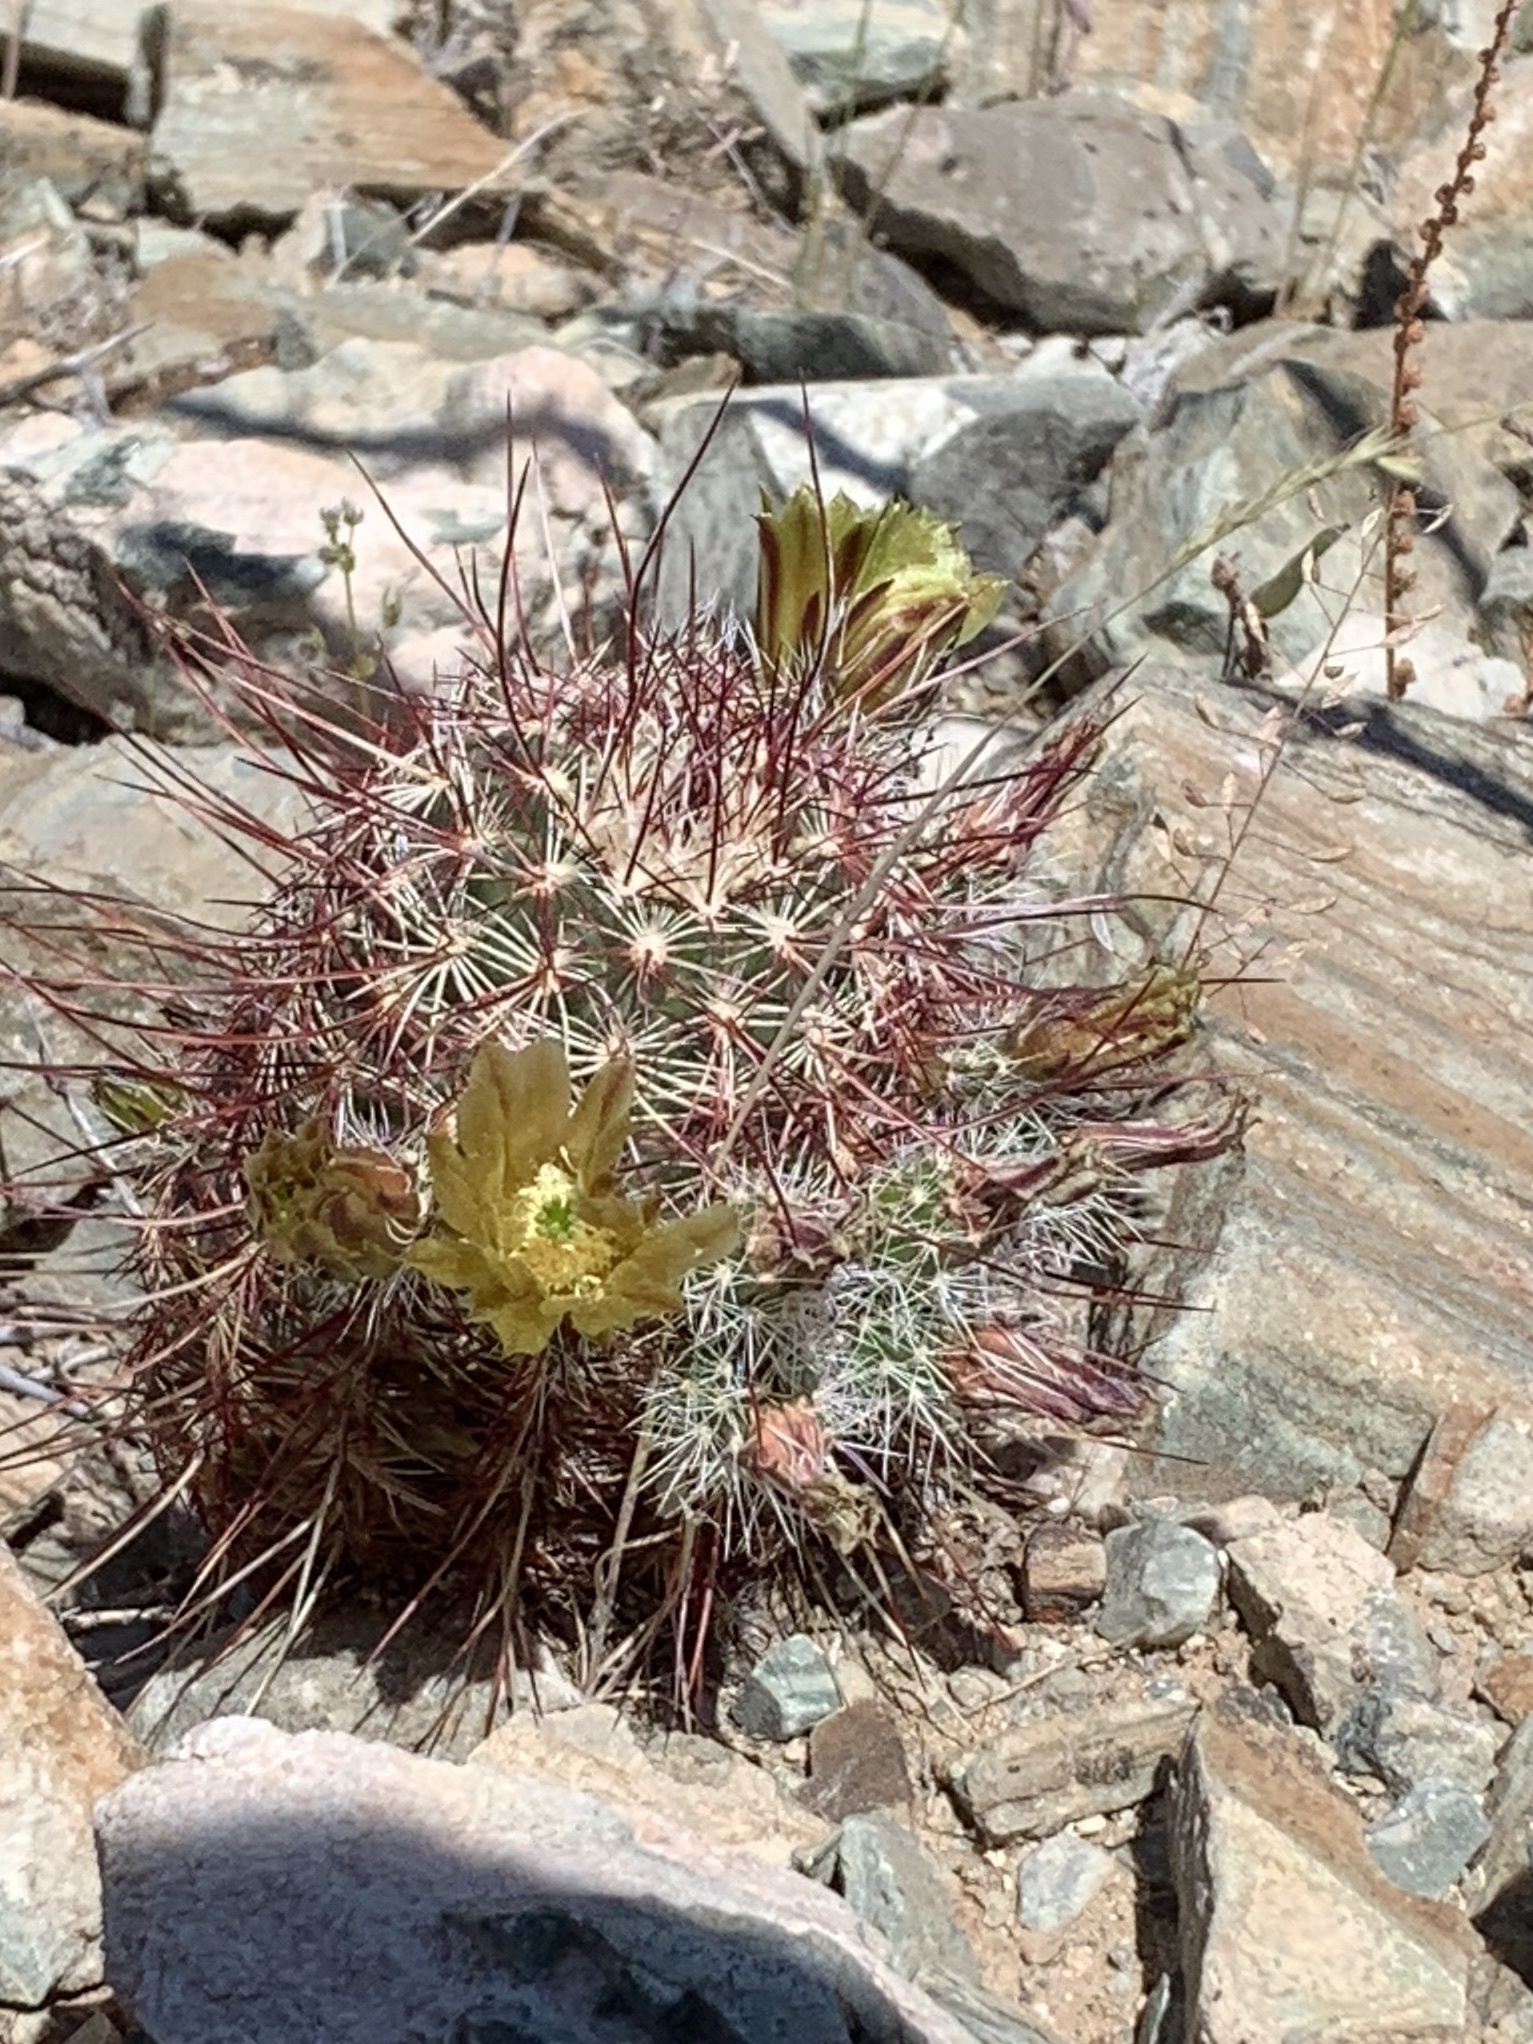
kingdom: Plantae
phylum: Tracheophyta
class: Magnoliopsida
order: Caryophyllales
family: Cactaceae
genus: Echinocereus
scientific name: Echinocereus viridiflorus
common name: Nylon hedgehog cactus
